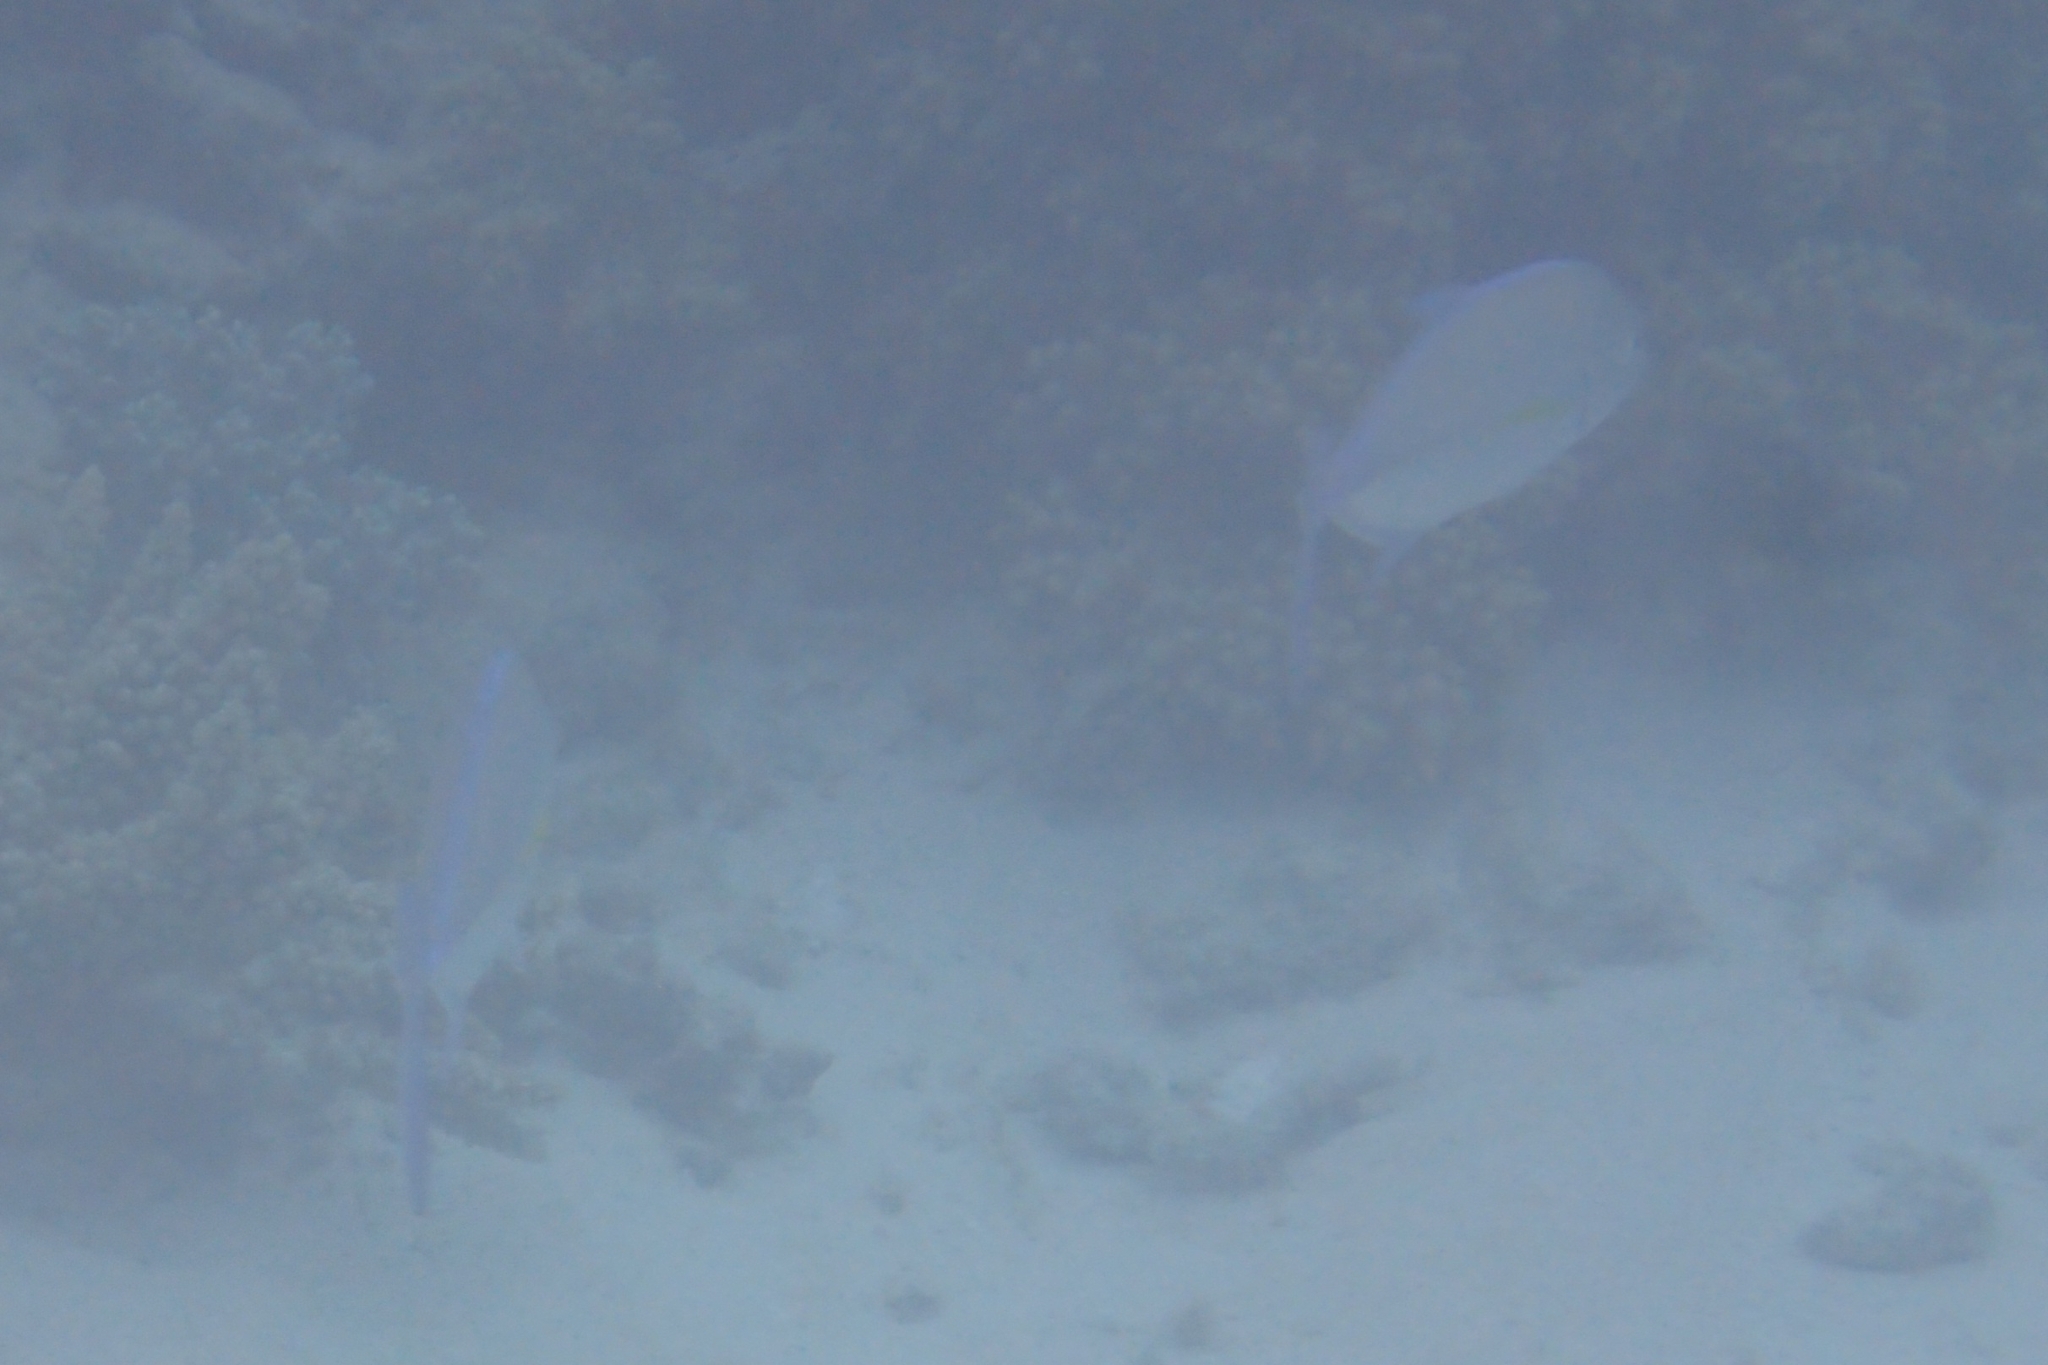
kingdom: Animalia
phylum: Chordata
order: Perciformes
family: Carangidae
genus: Caranx
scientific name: Caranx melampygus
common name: Bluefin trevally
